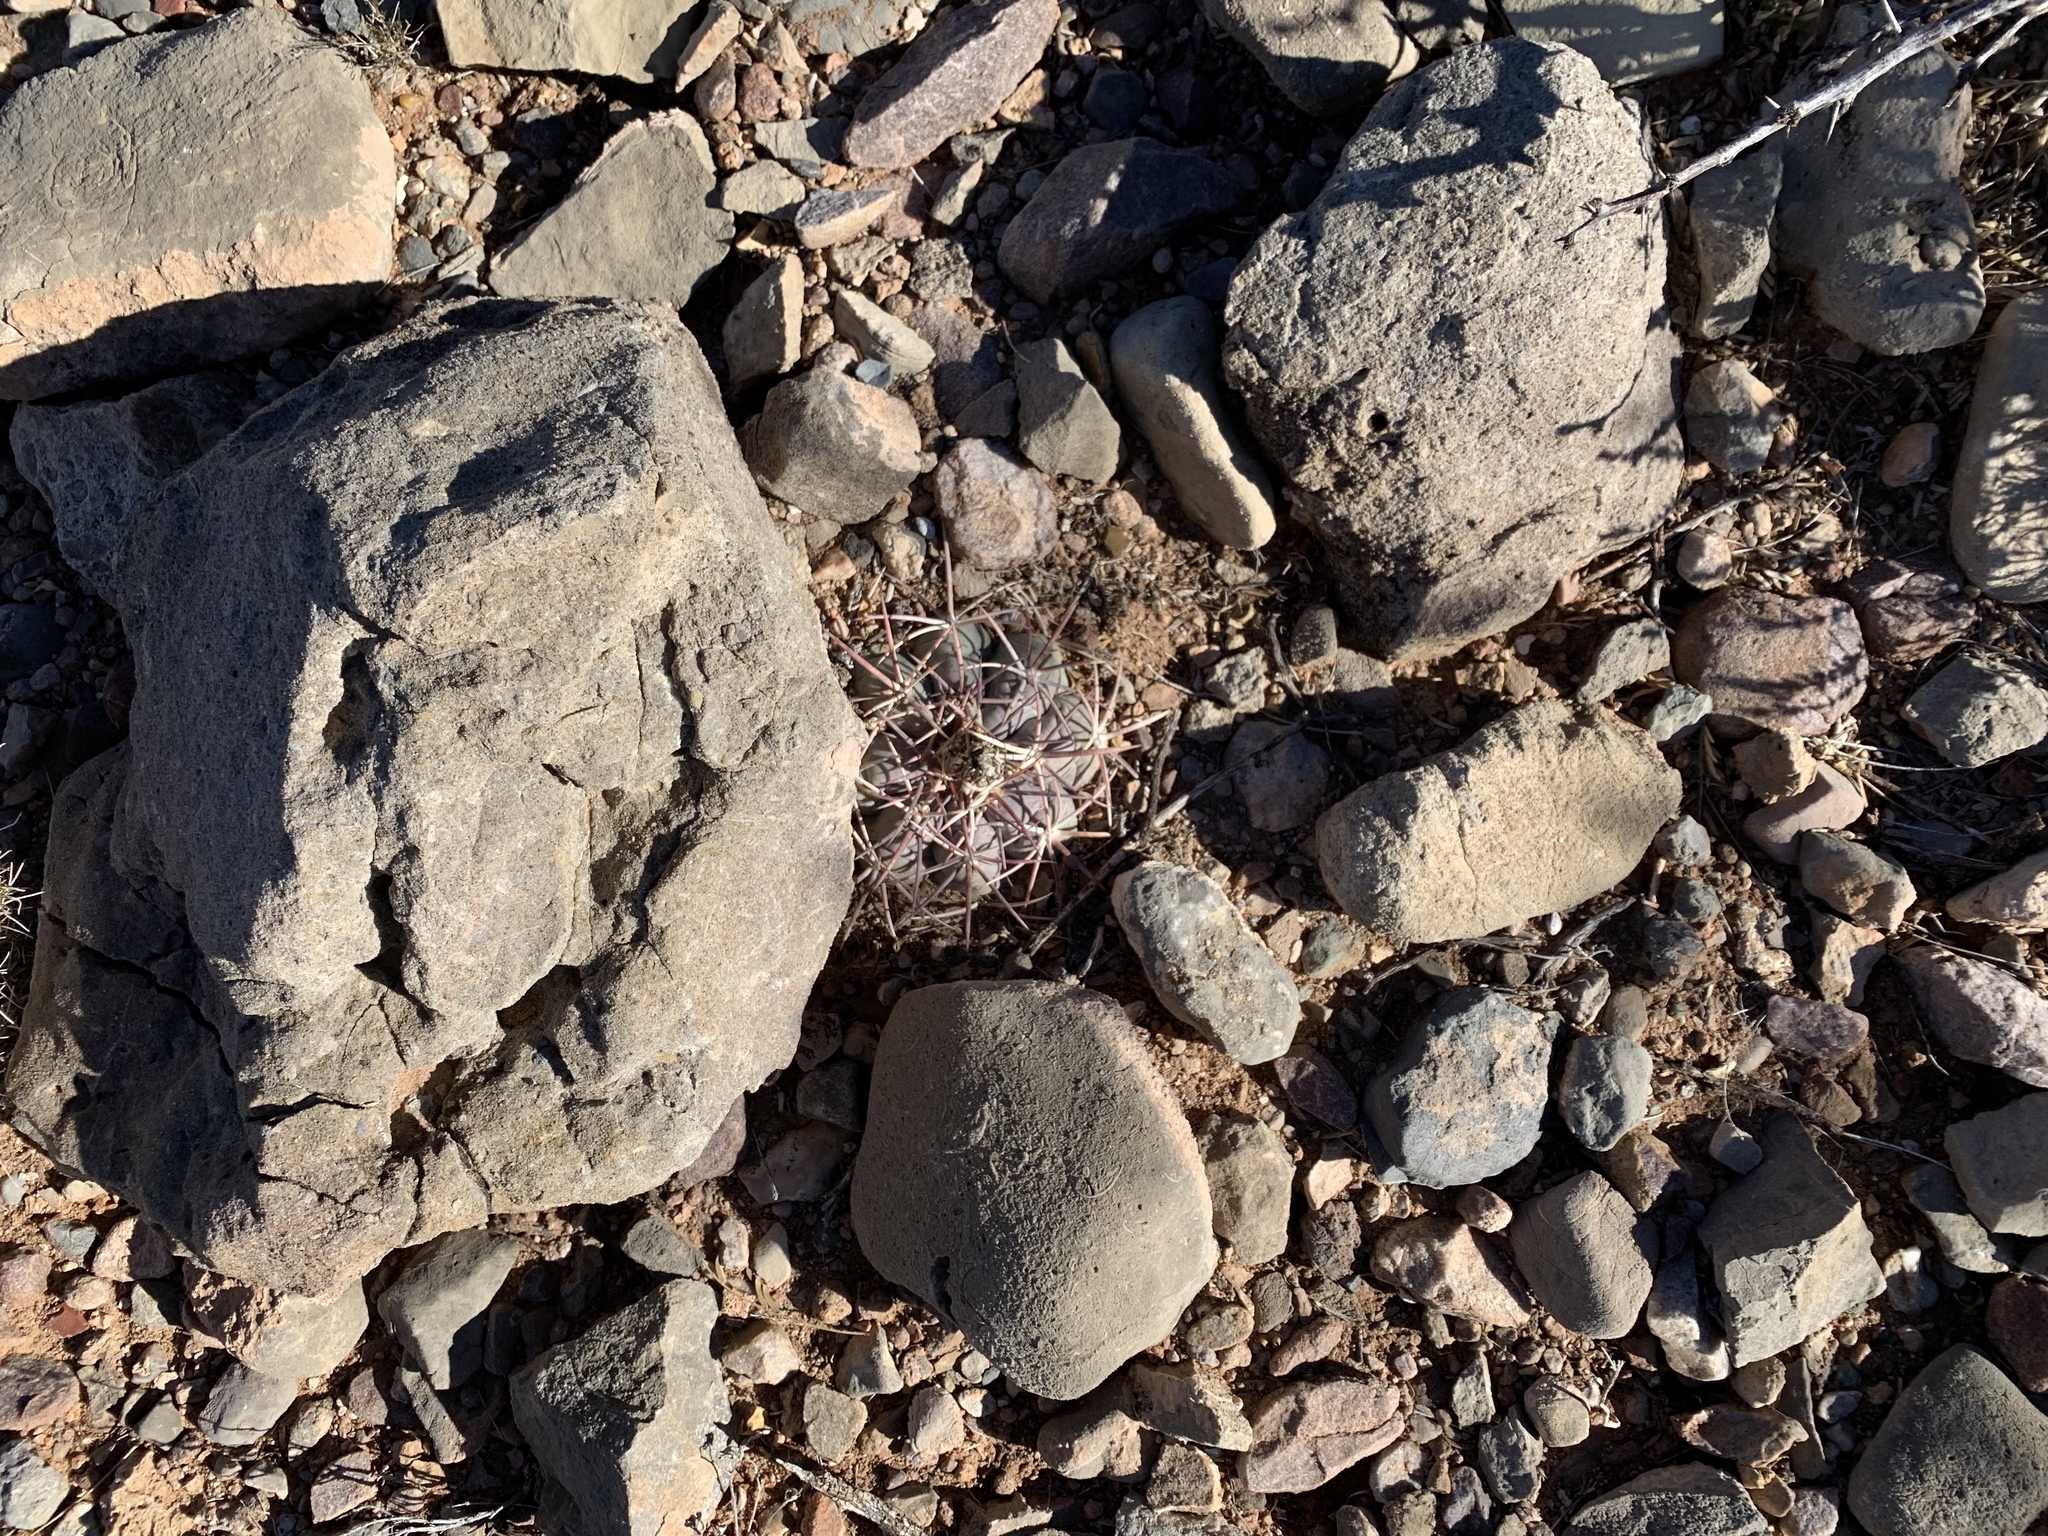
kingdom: Plantae
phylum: Tracheophyta
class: Magnoliopsida
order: Caryophyllales
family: Cactaceae
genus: Echinocactus
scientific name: Echinocactus horizonthalonius
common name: Devilshead
